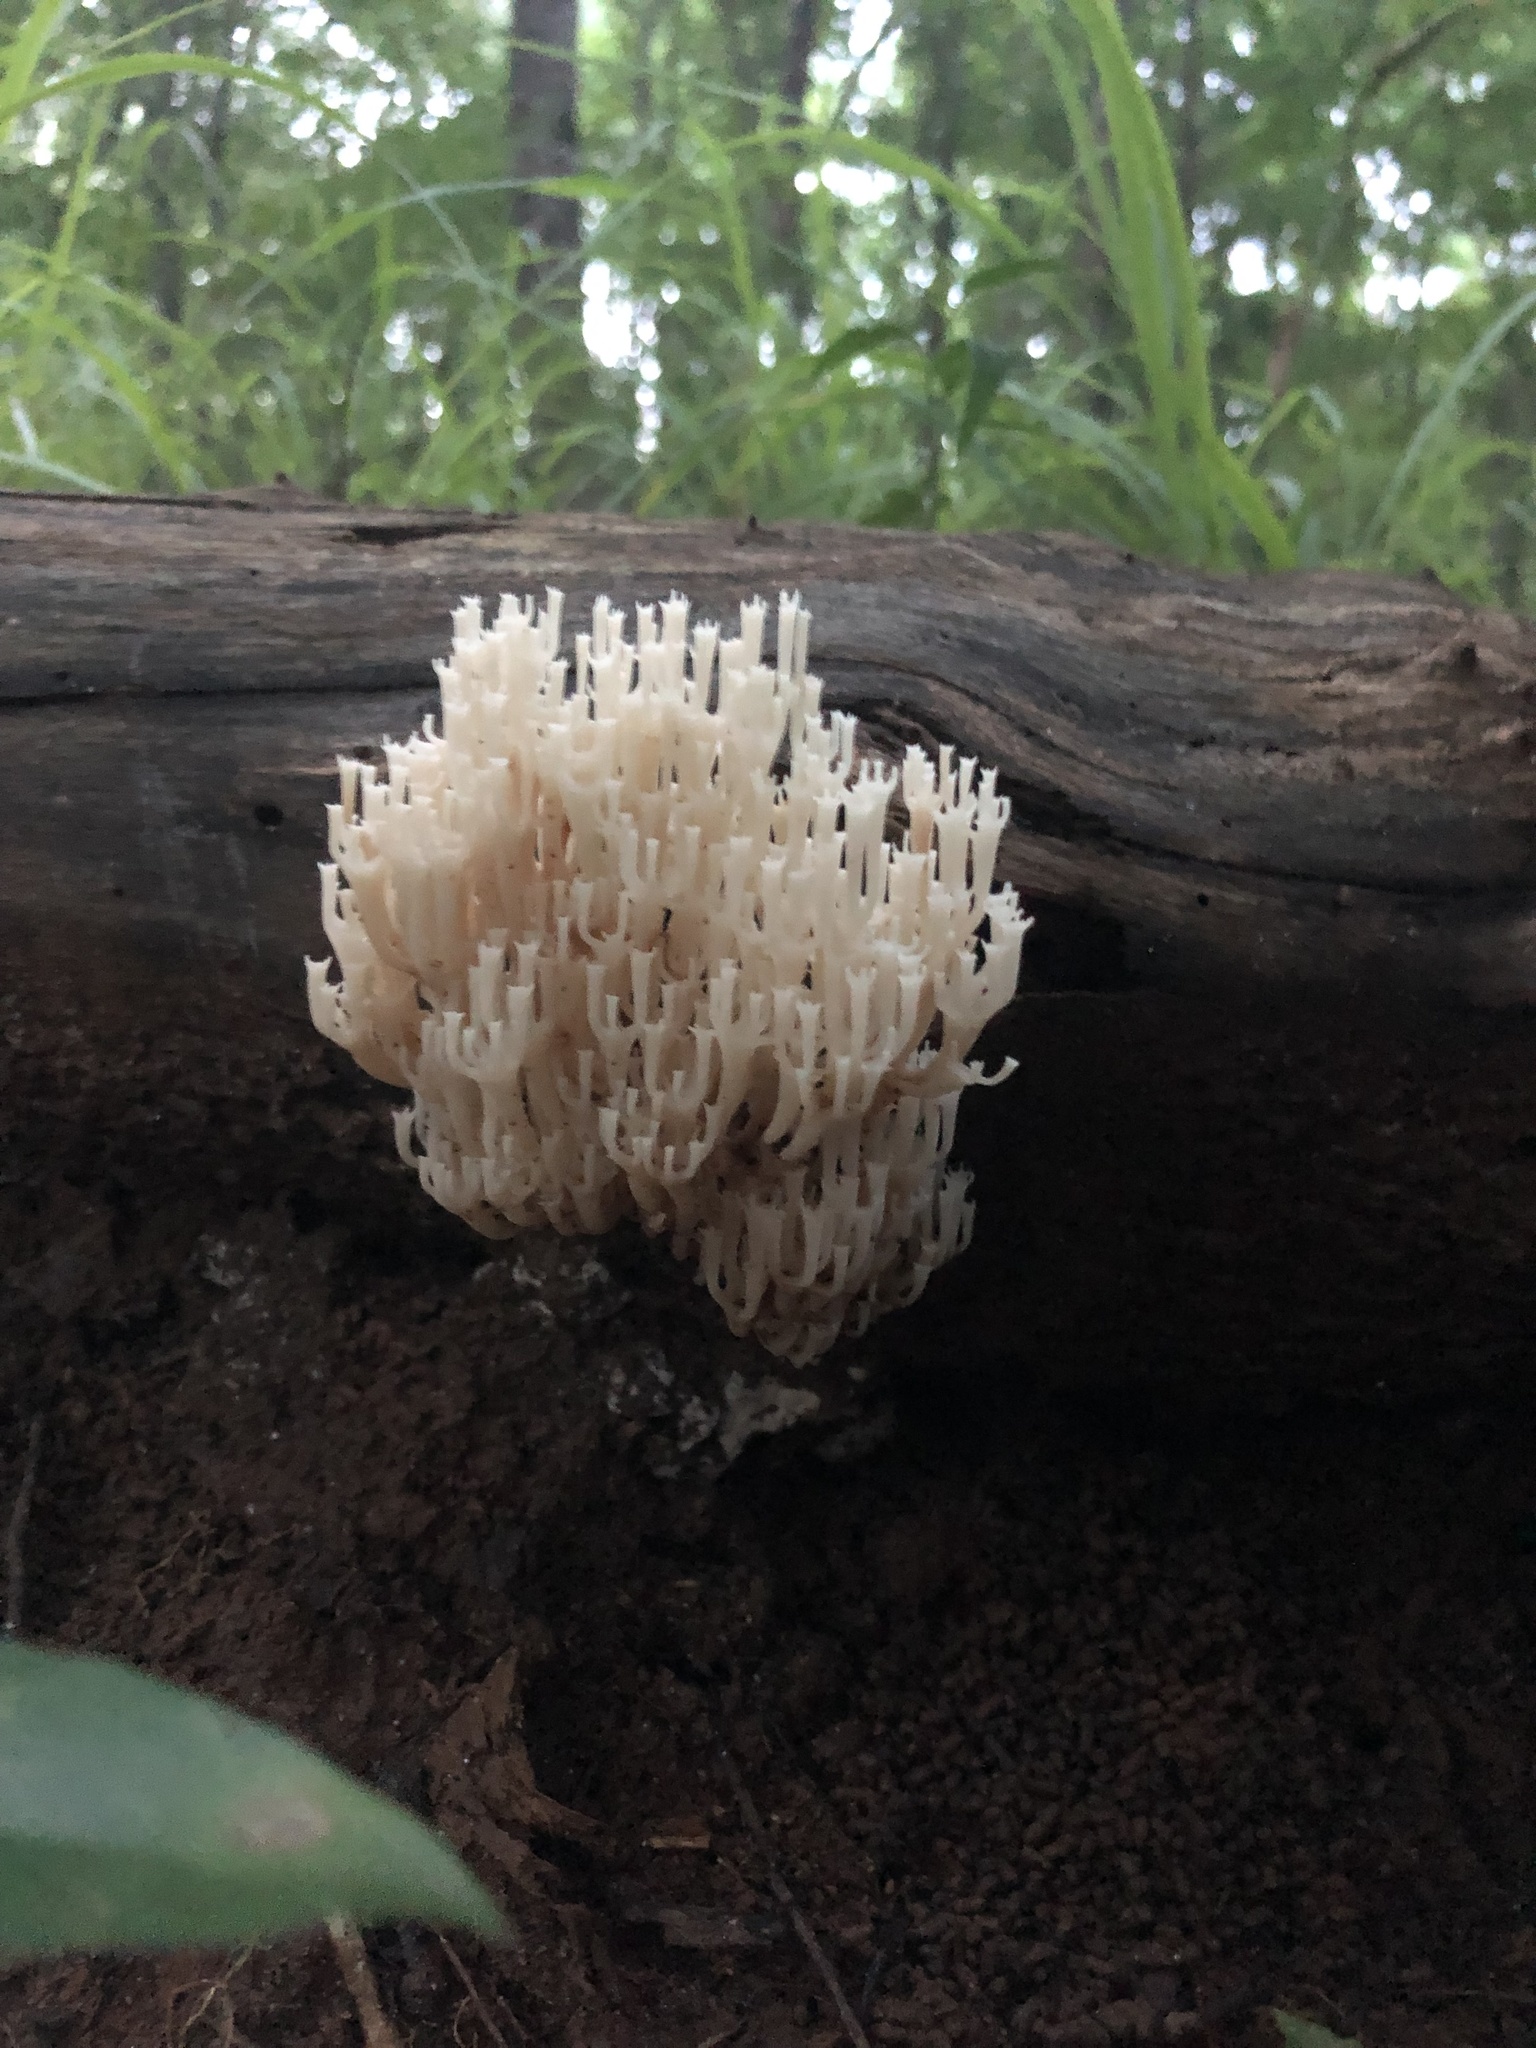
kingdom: Fungi
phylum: Basidiomycota
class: Agaricomycetes
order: Russulales
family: Auriscalpiaceae
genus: Artomyces
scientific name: Artomyces pyxidatus
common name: Crown-tipped coral fungus
